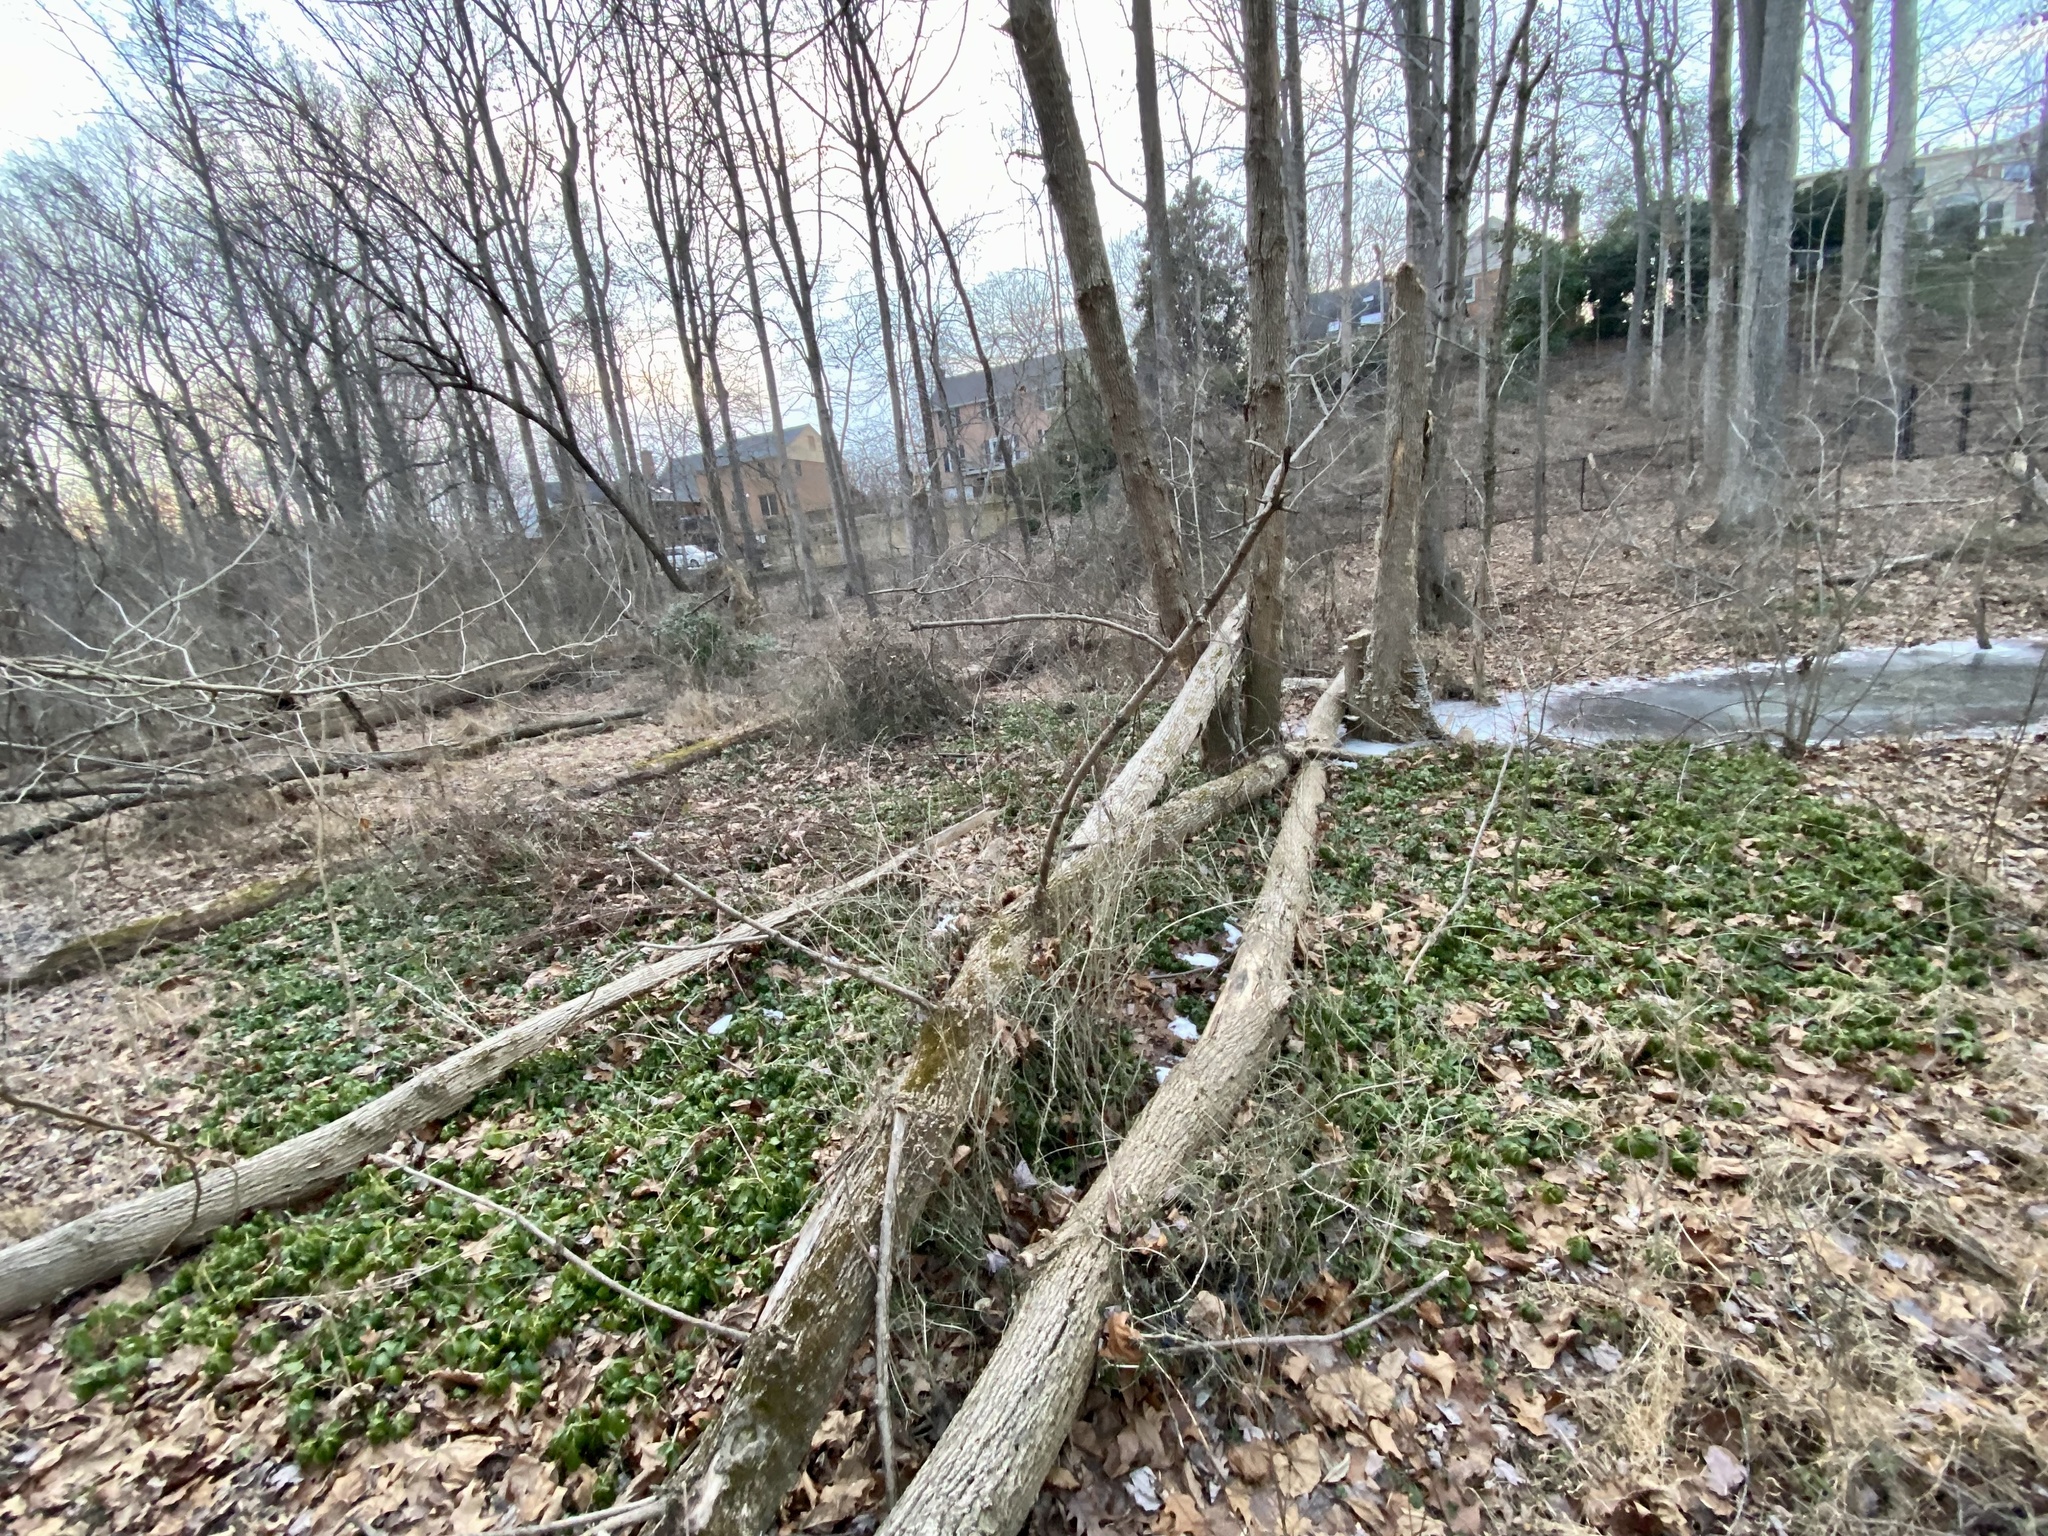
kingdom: Plantae
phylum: Tracheophyta
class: Magnoliopsida
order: Buxales
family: Buxaceae
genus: Pachysandra
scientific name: Pachysandra terminalis
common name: Japanese pachysandra
